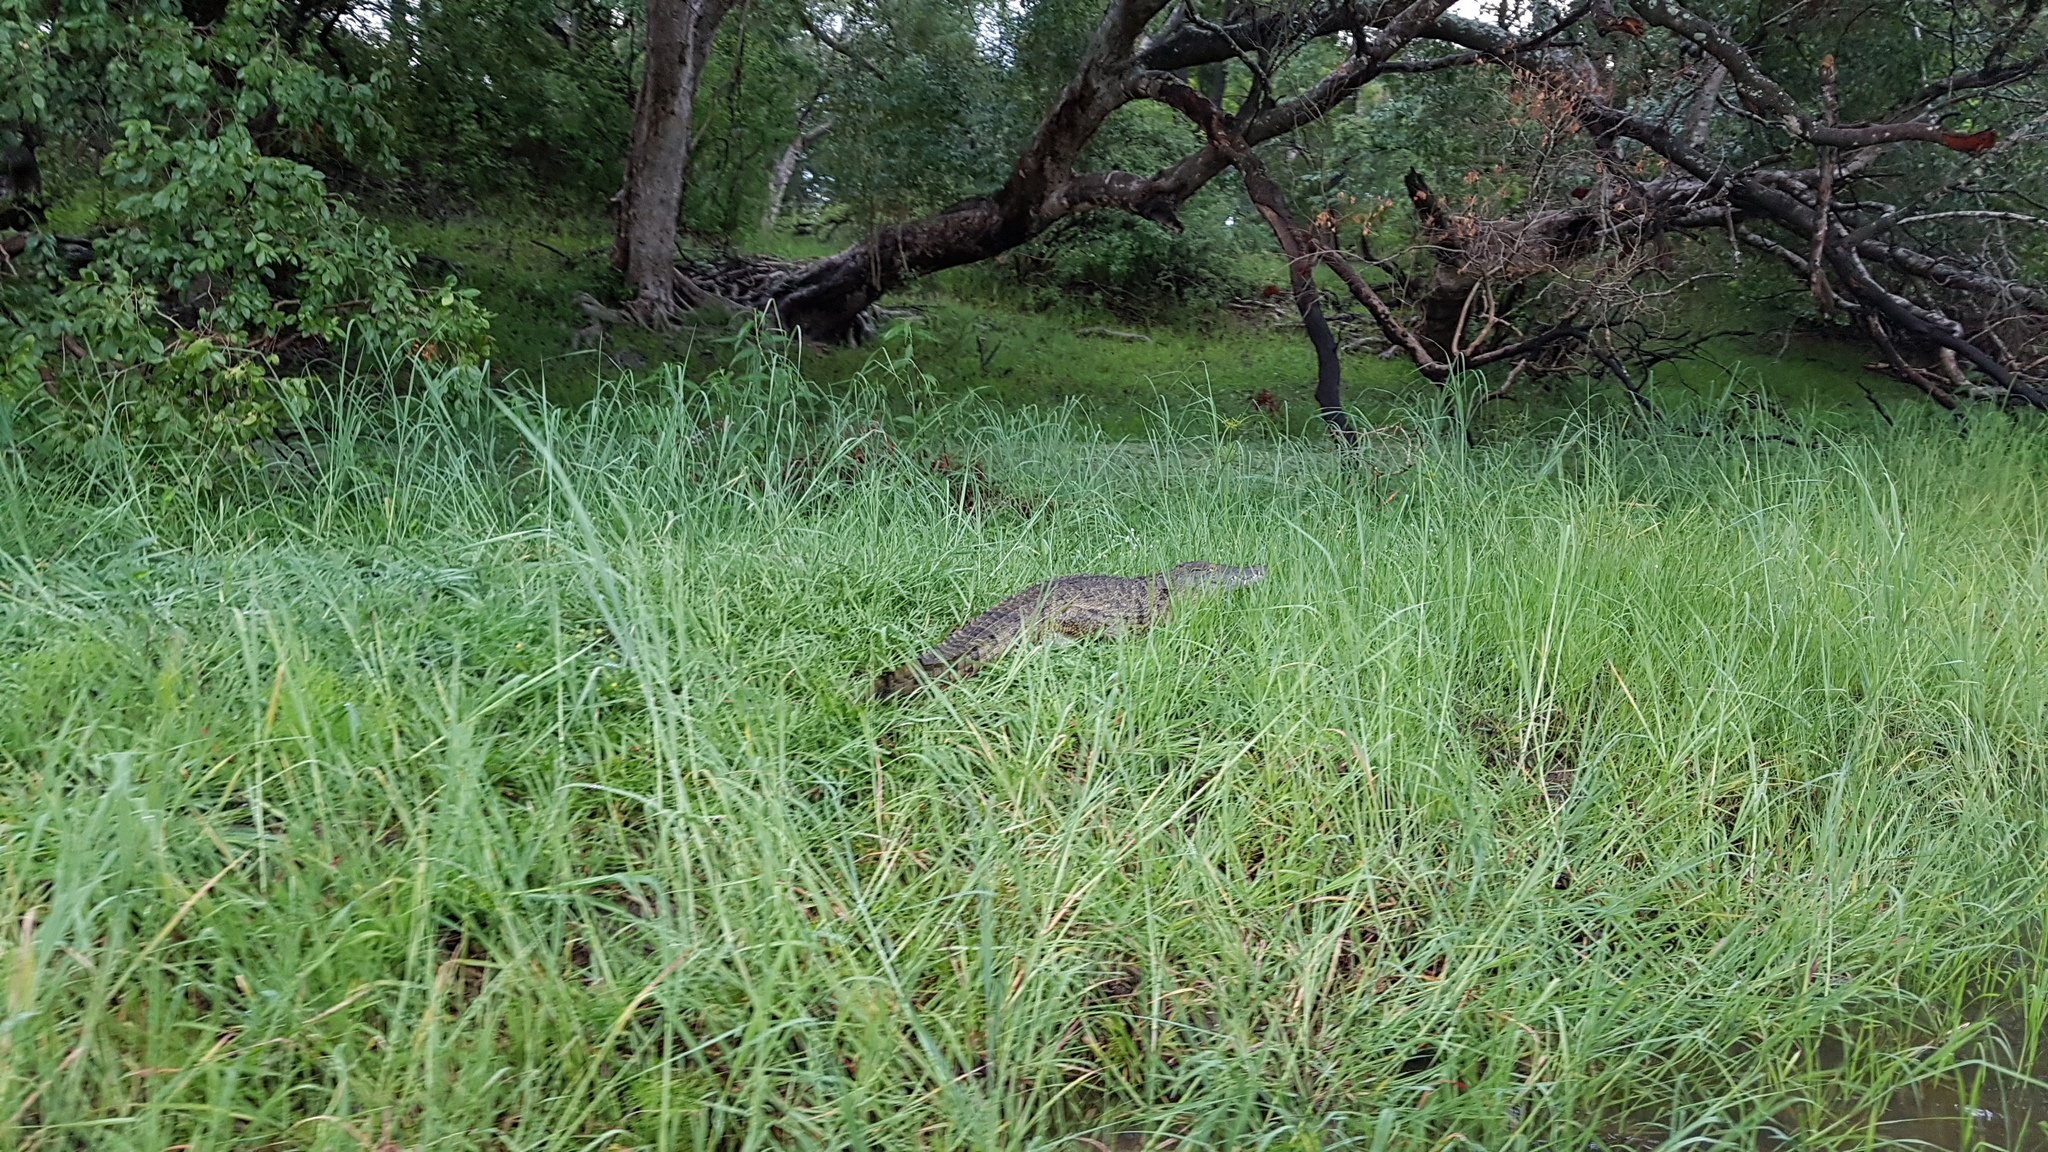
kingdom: Animalia
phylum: Chordata
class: Crocodylia
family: Crocodylidae
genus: Crocodylus
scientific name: Crocodylus niloticus
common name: Nile crocodile
